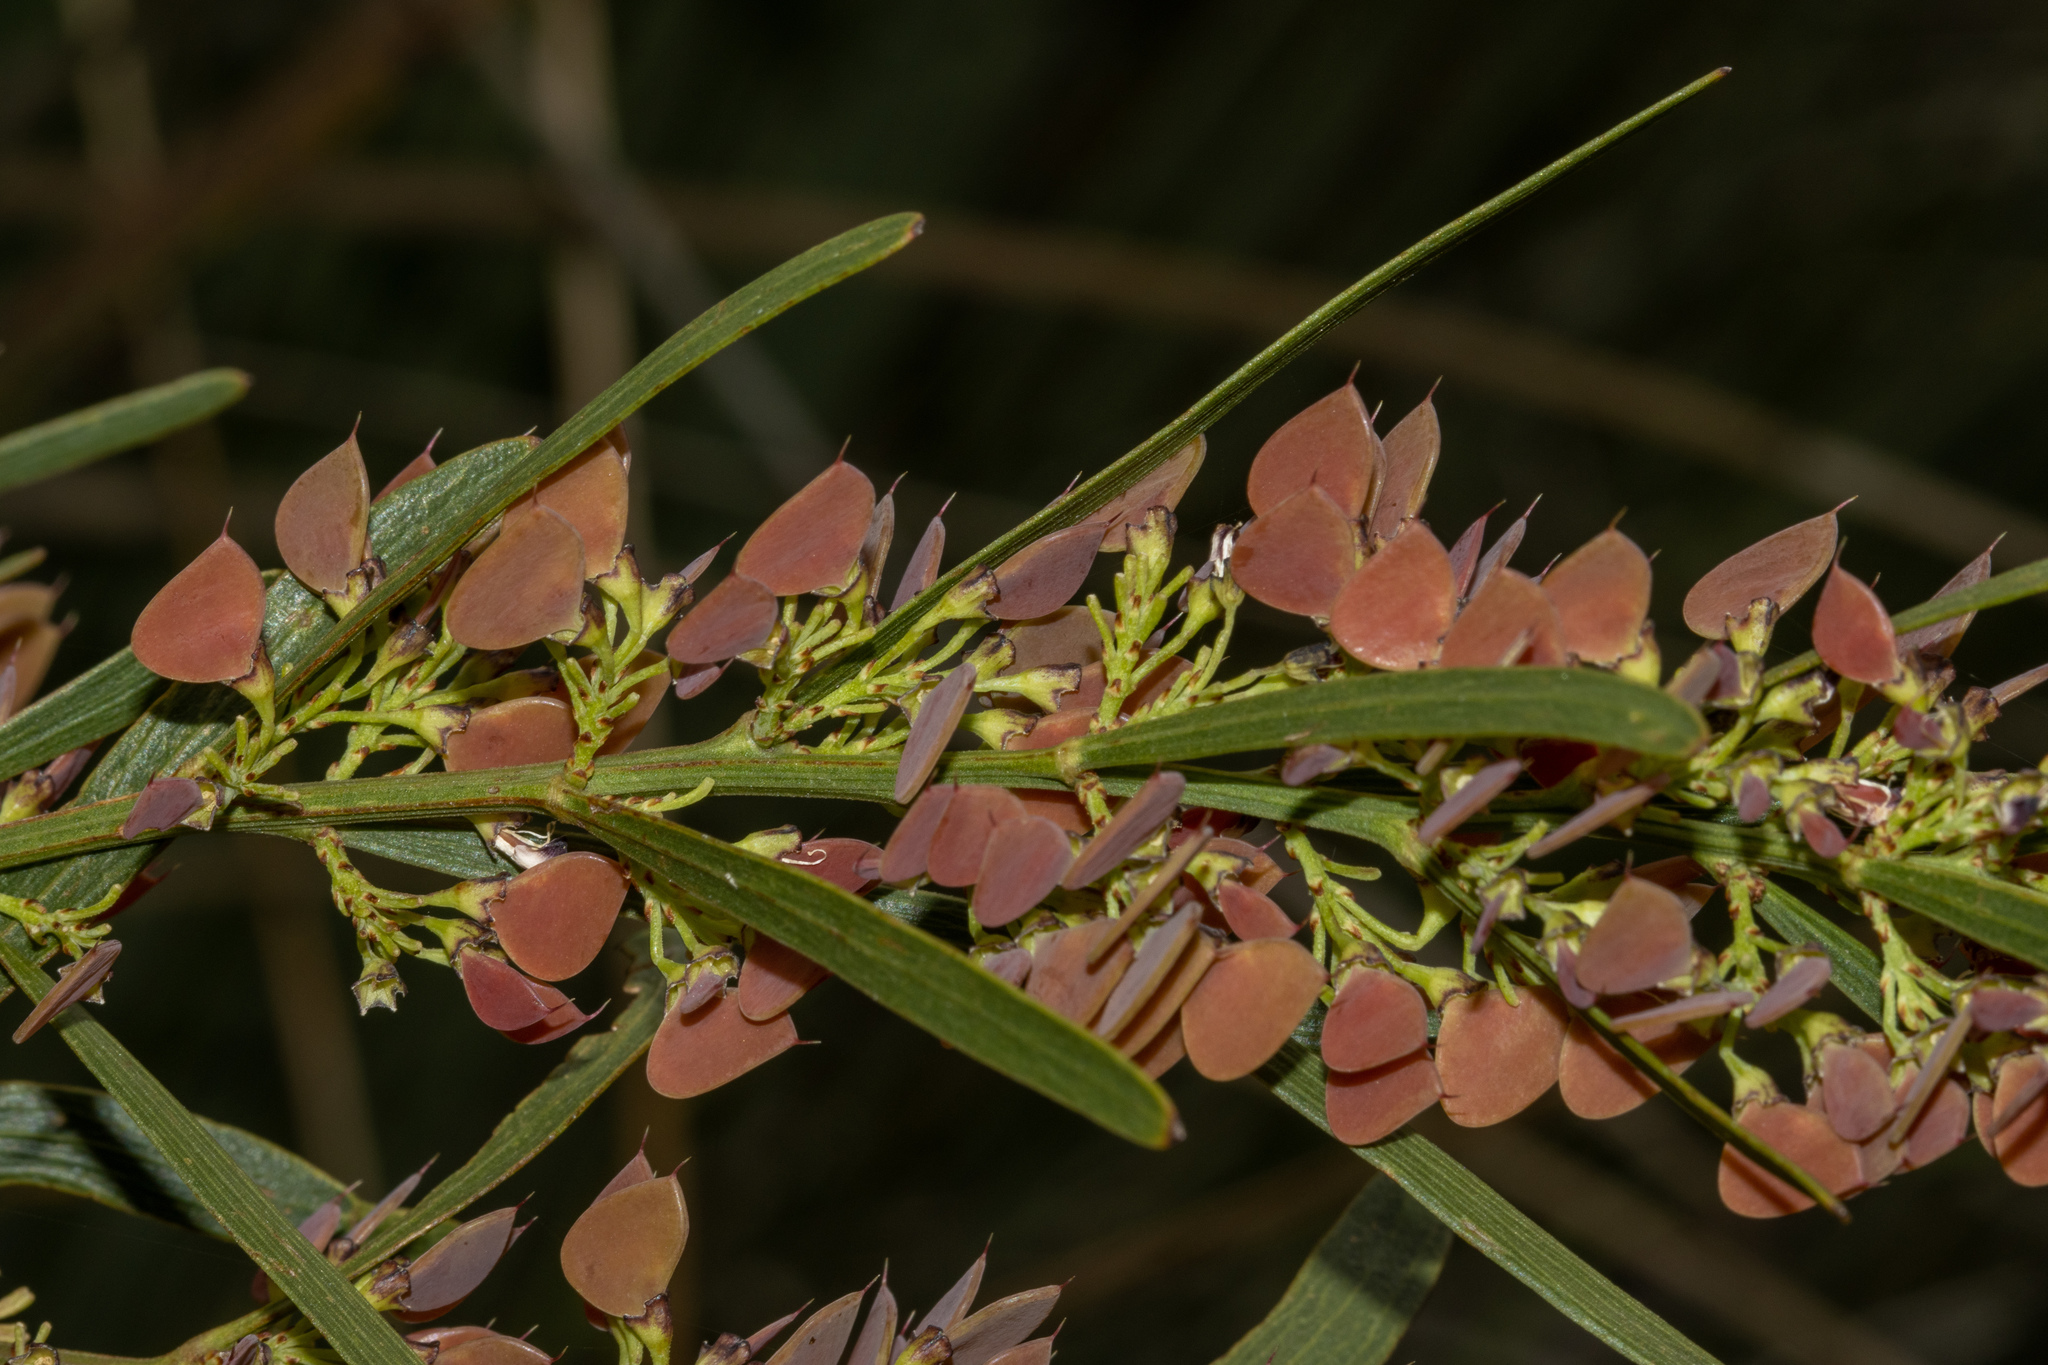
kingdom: Plantae
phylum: Tracheophyta
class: Magnoliopsida
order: Fabales
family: Fabaceae
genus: Daviesia
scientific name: Daviesia leptophylla
